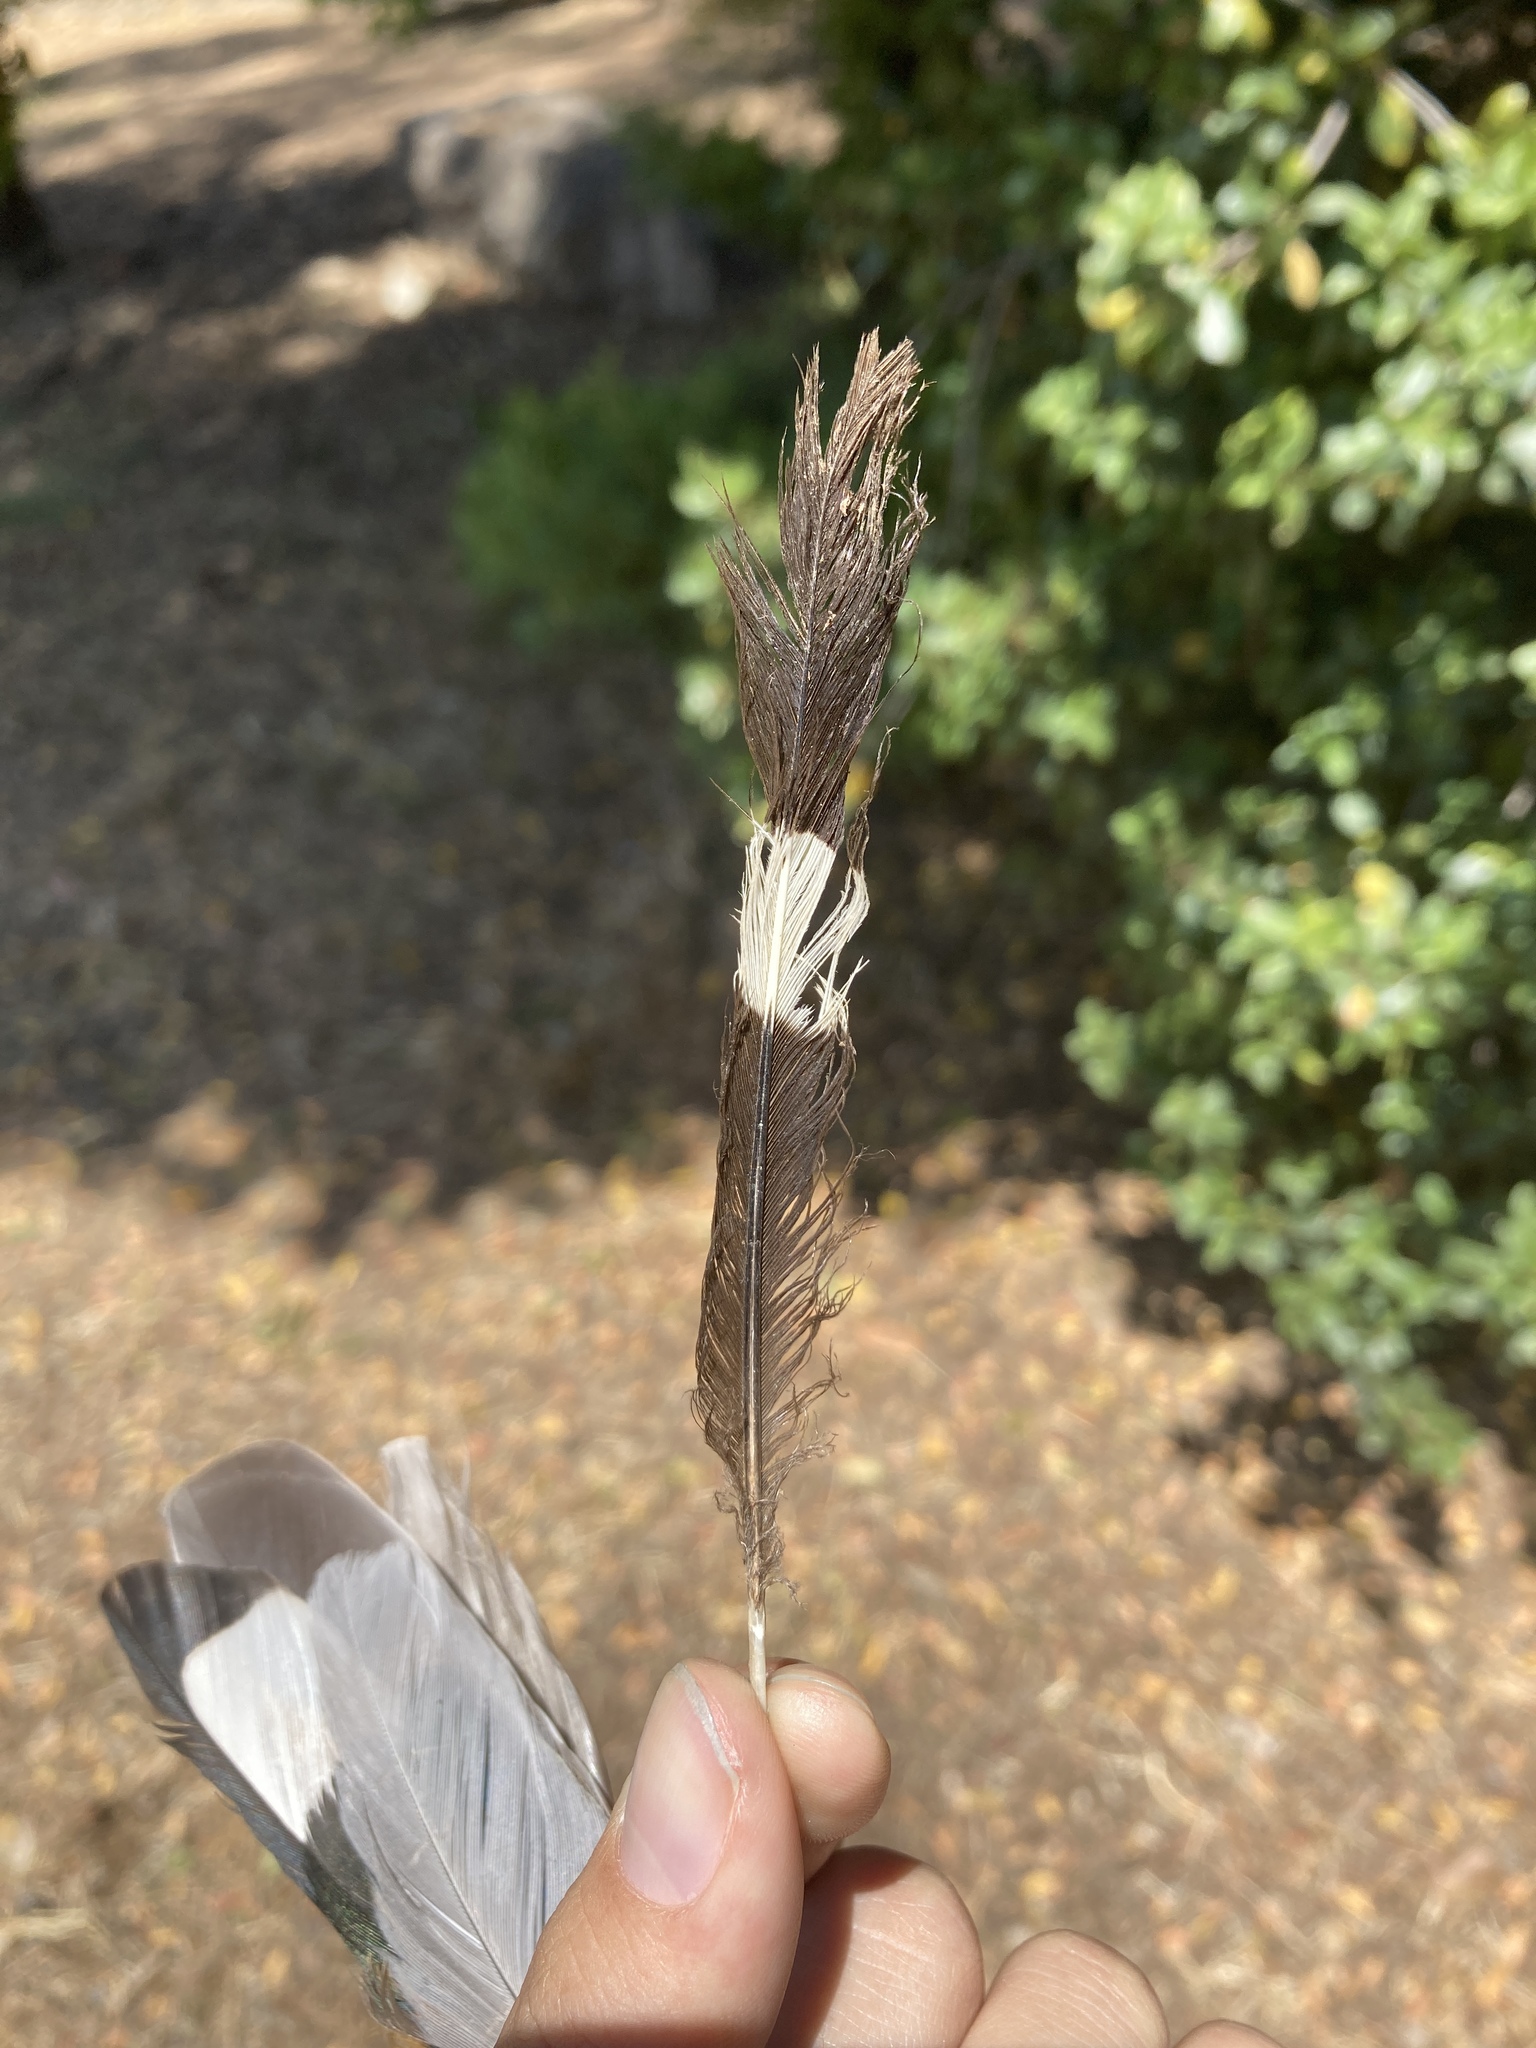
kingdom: Animalia
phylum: Chordata
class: Aves
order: Bucerotiformes
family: Upupidae
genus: Upupa
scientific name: Upupa epops
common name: Eurasian hoopoe
